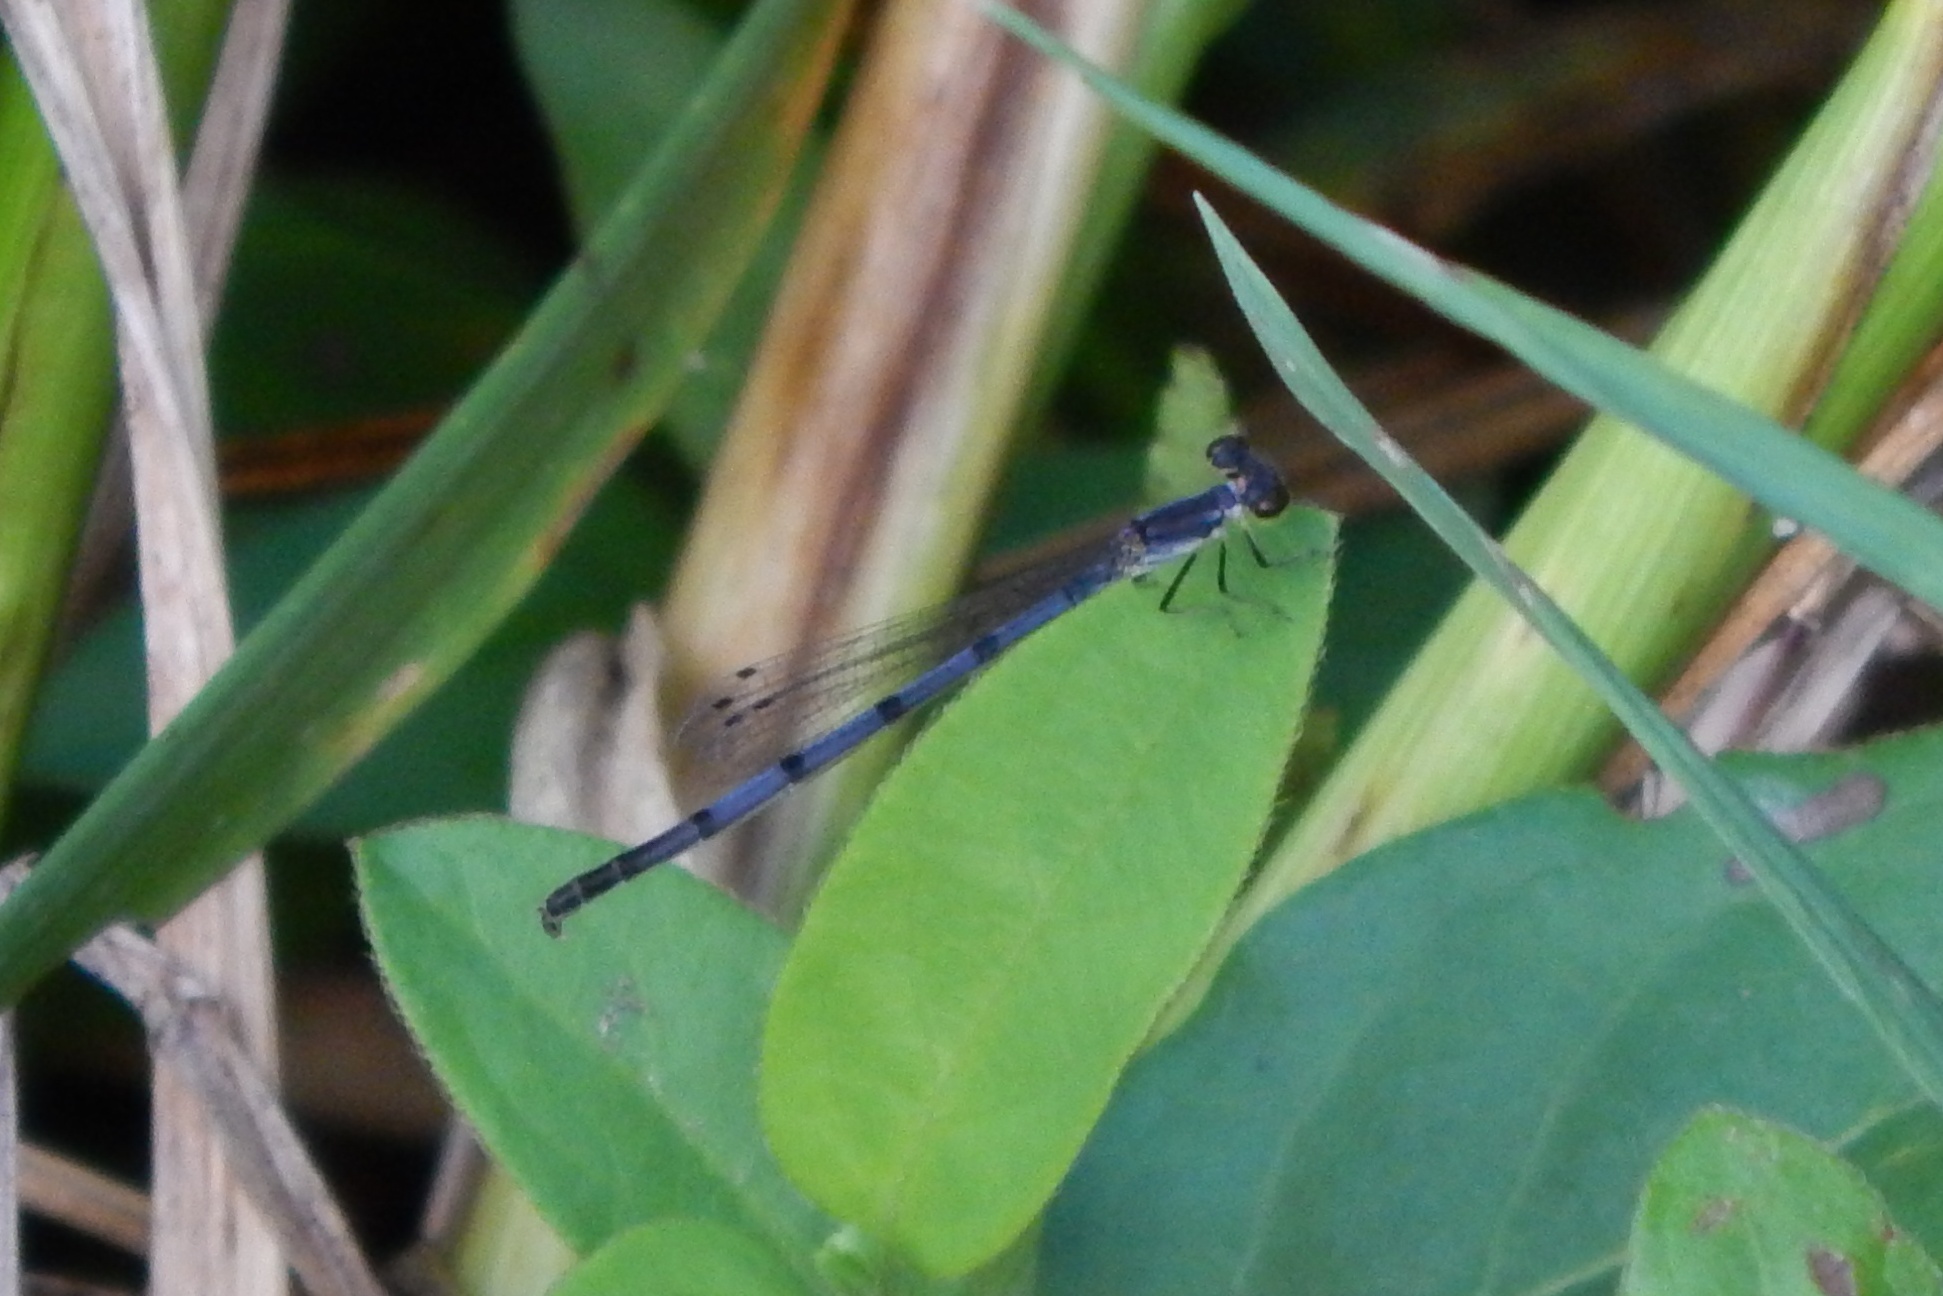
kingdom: Animalia
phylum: Arthropoda
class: Insecta
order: Odonata
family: Coenagrionidae
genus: Ischnura
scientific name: Ischnura posita
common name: Fragile forktail
